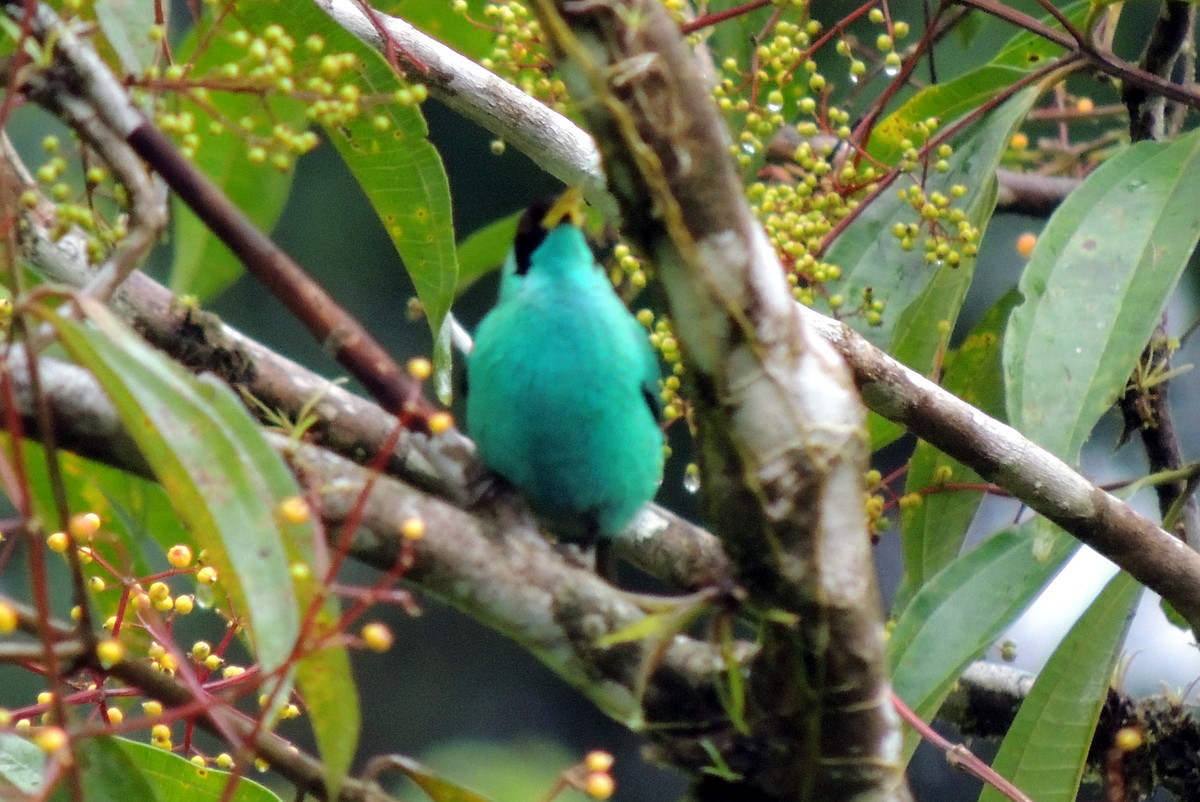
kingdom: Animalia
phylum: Chordata
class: Aves
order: Passeriformes
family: Thraupidae
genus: Chlorophanes
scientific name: Chlorophanes spiza
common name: Green honeycreeper
